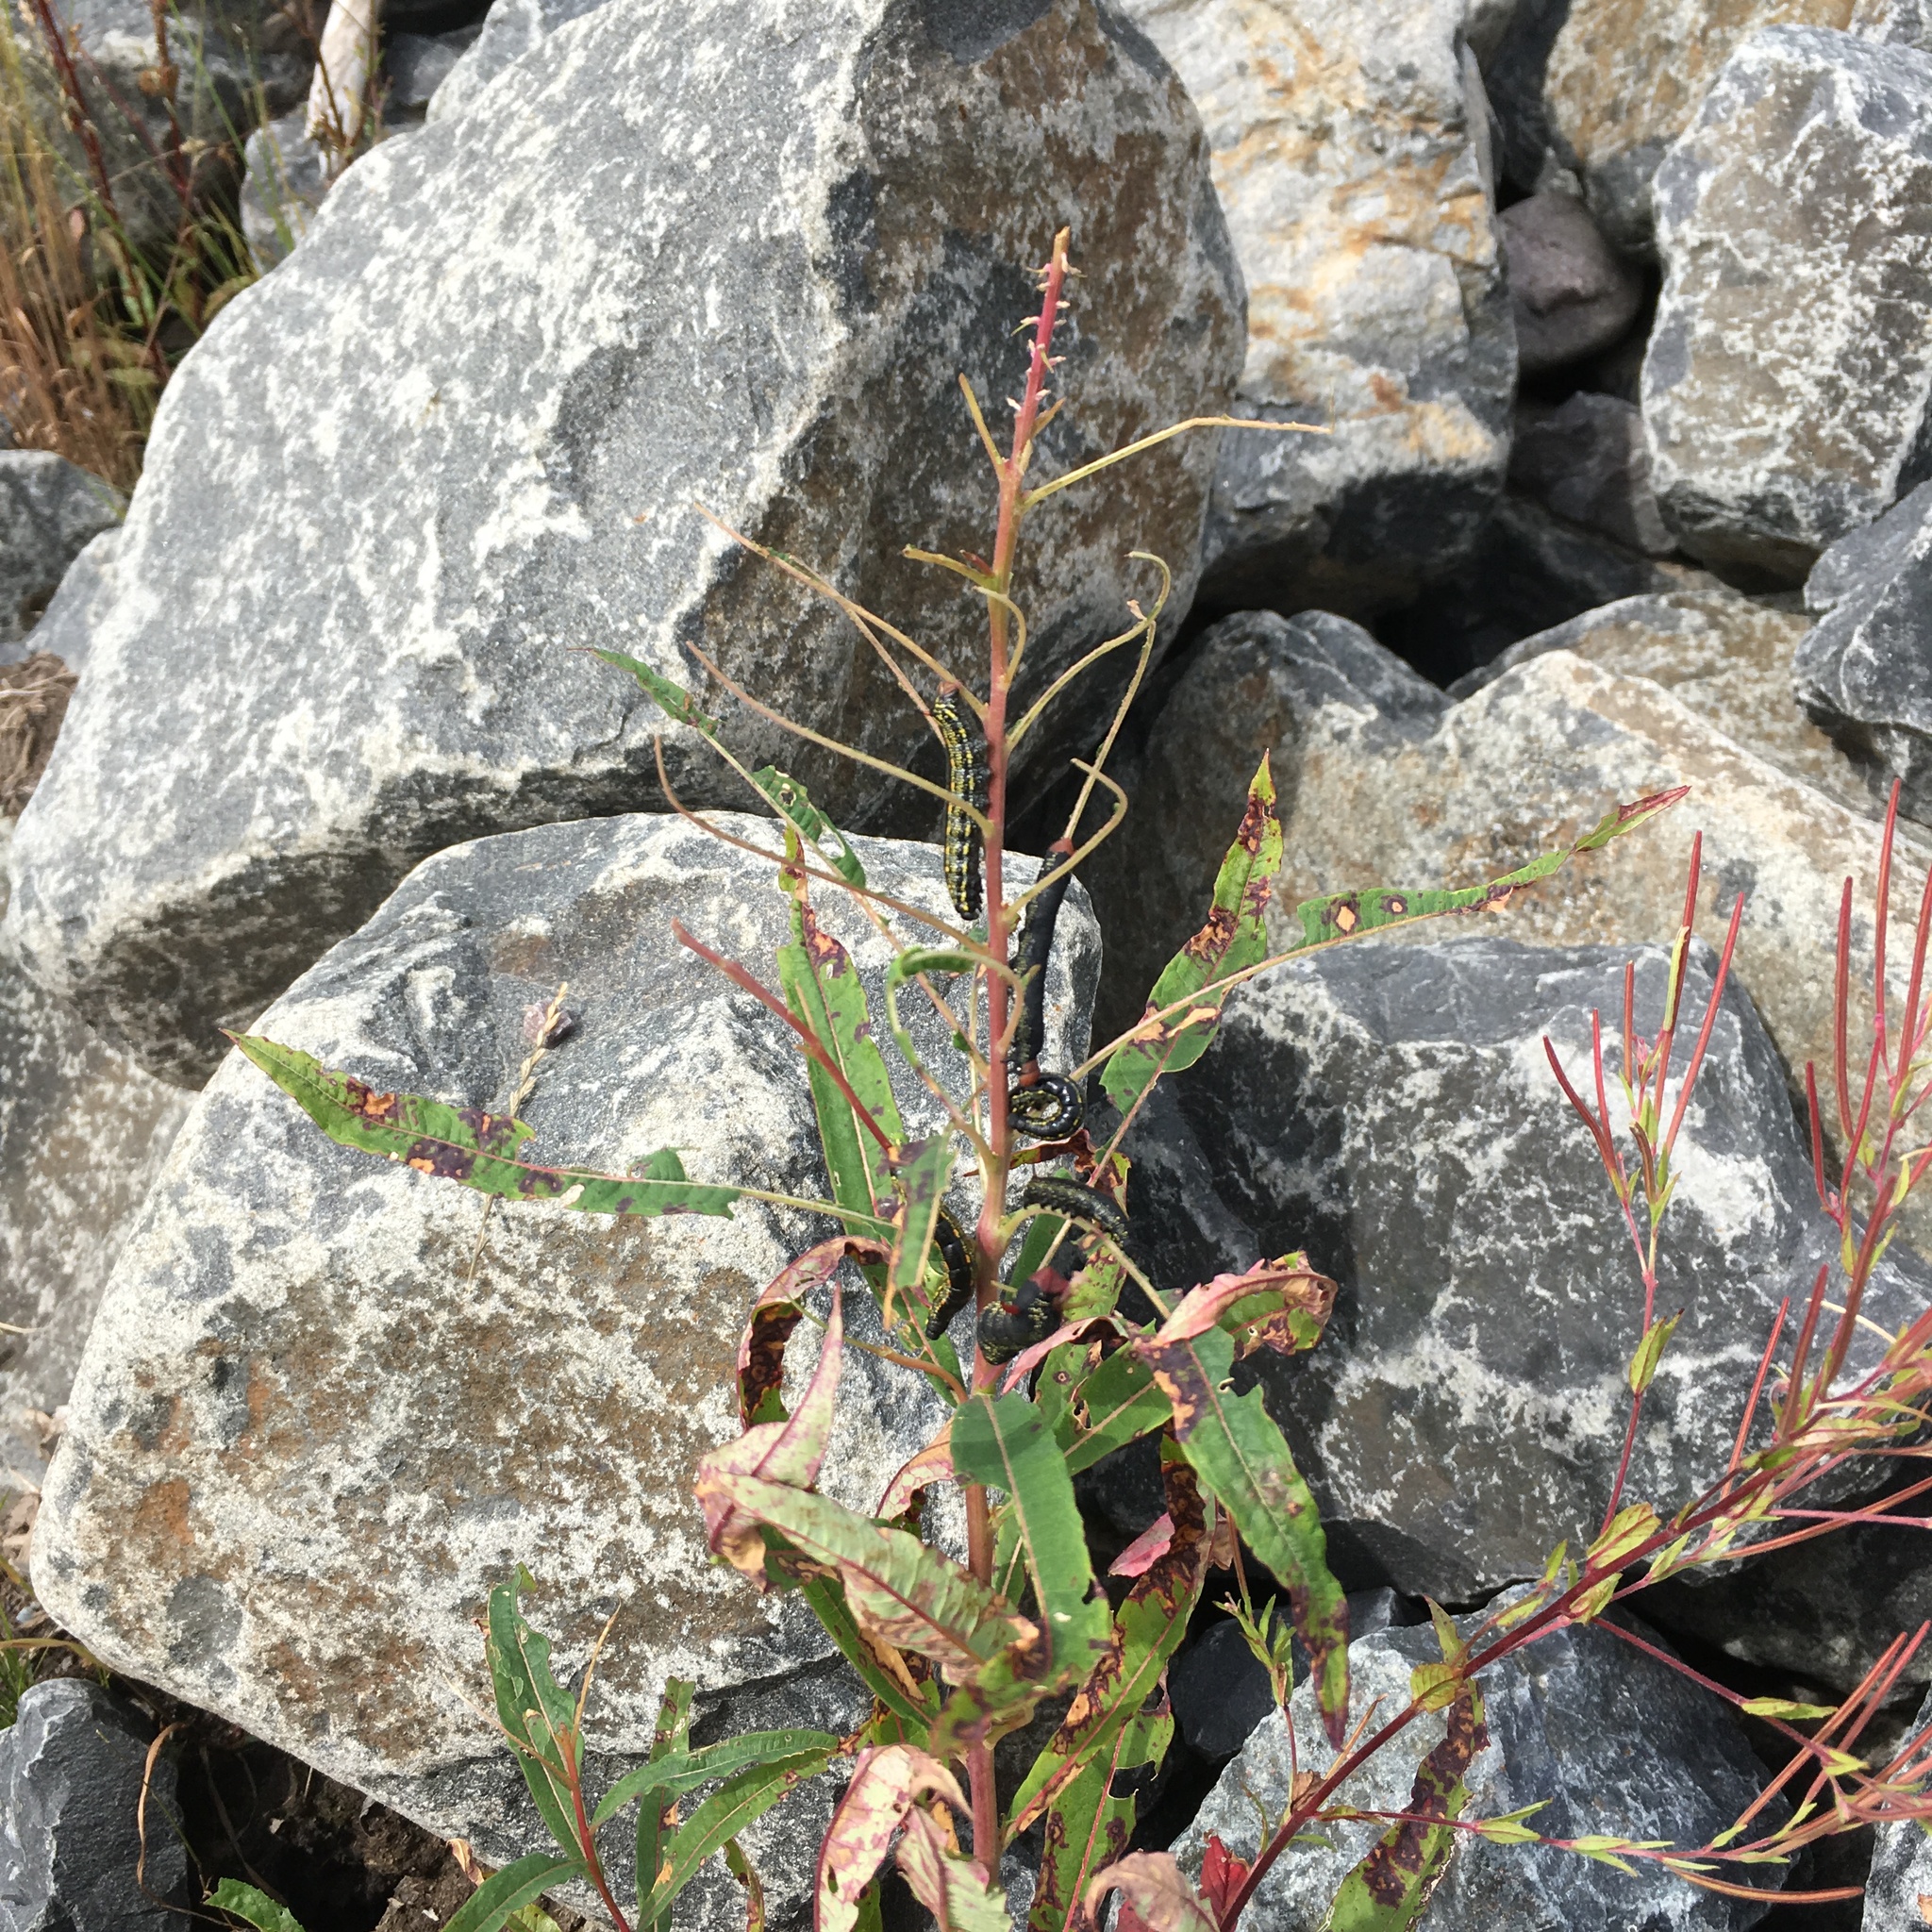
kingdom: Animalia
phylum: Arthropoda
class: Insecta
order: Lepidoptera
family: Sphingidae
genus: Hyles
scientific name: Hyles gallii
